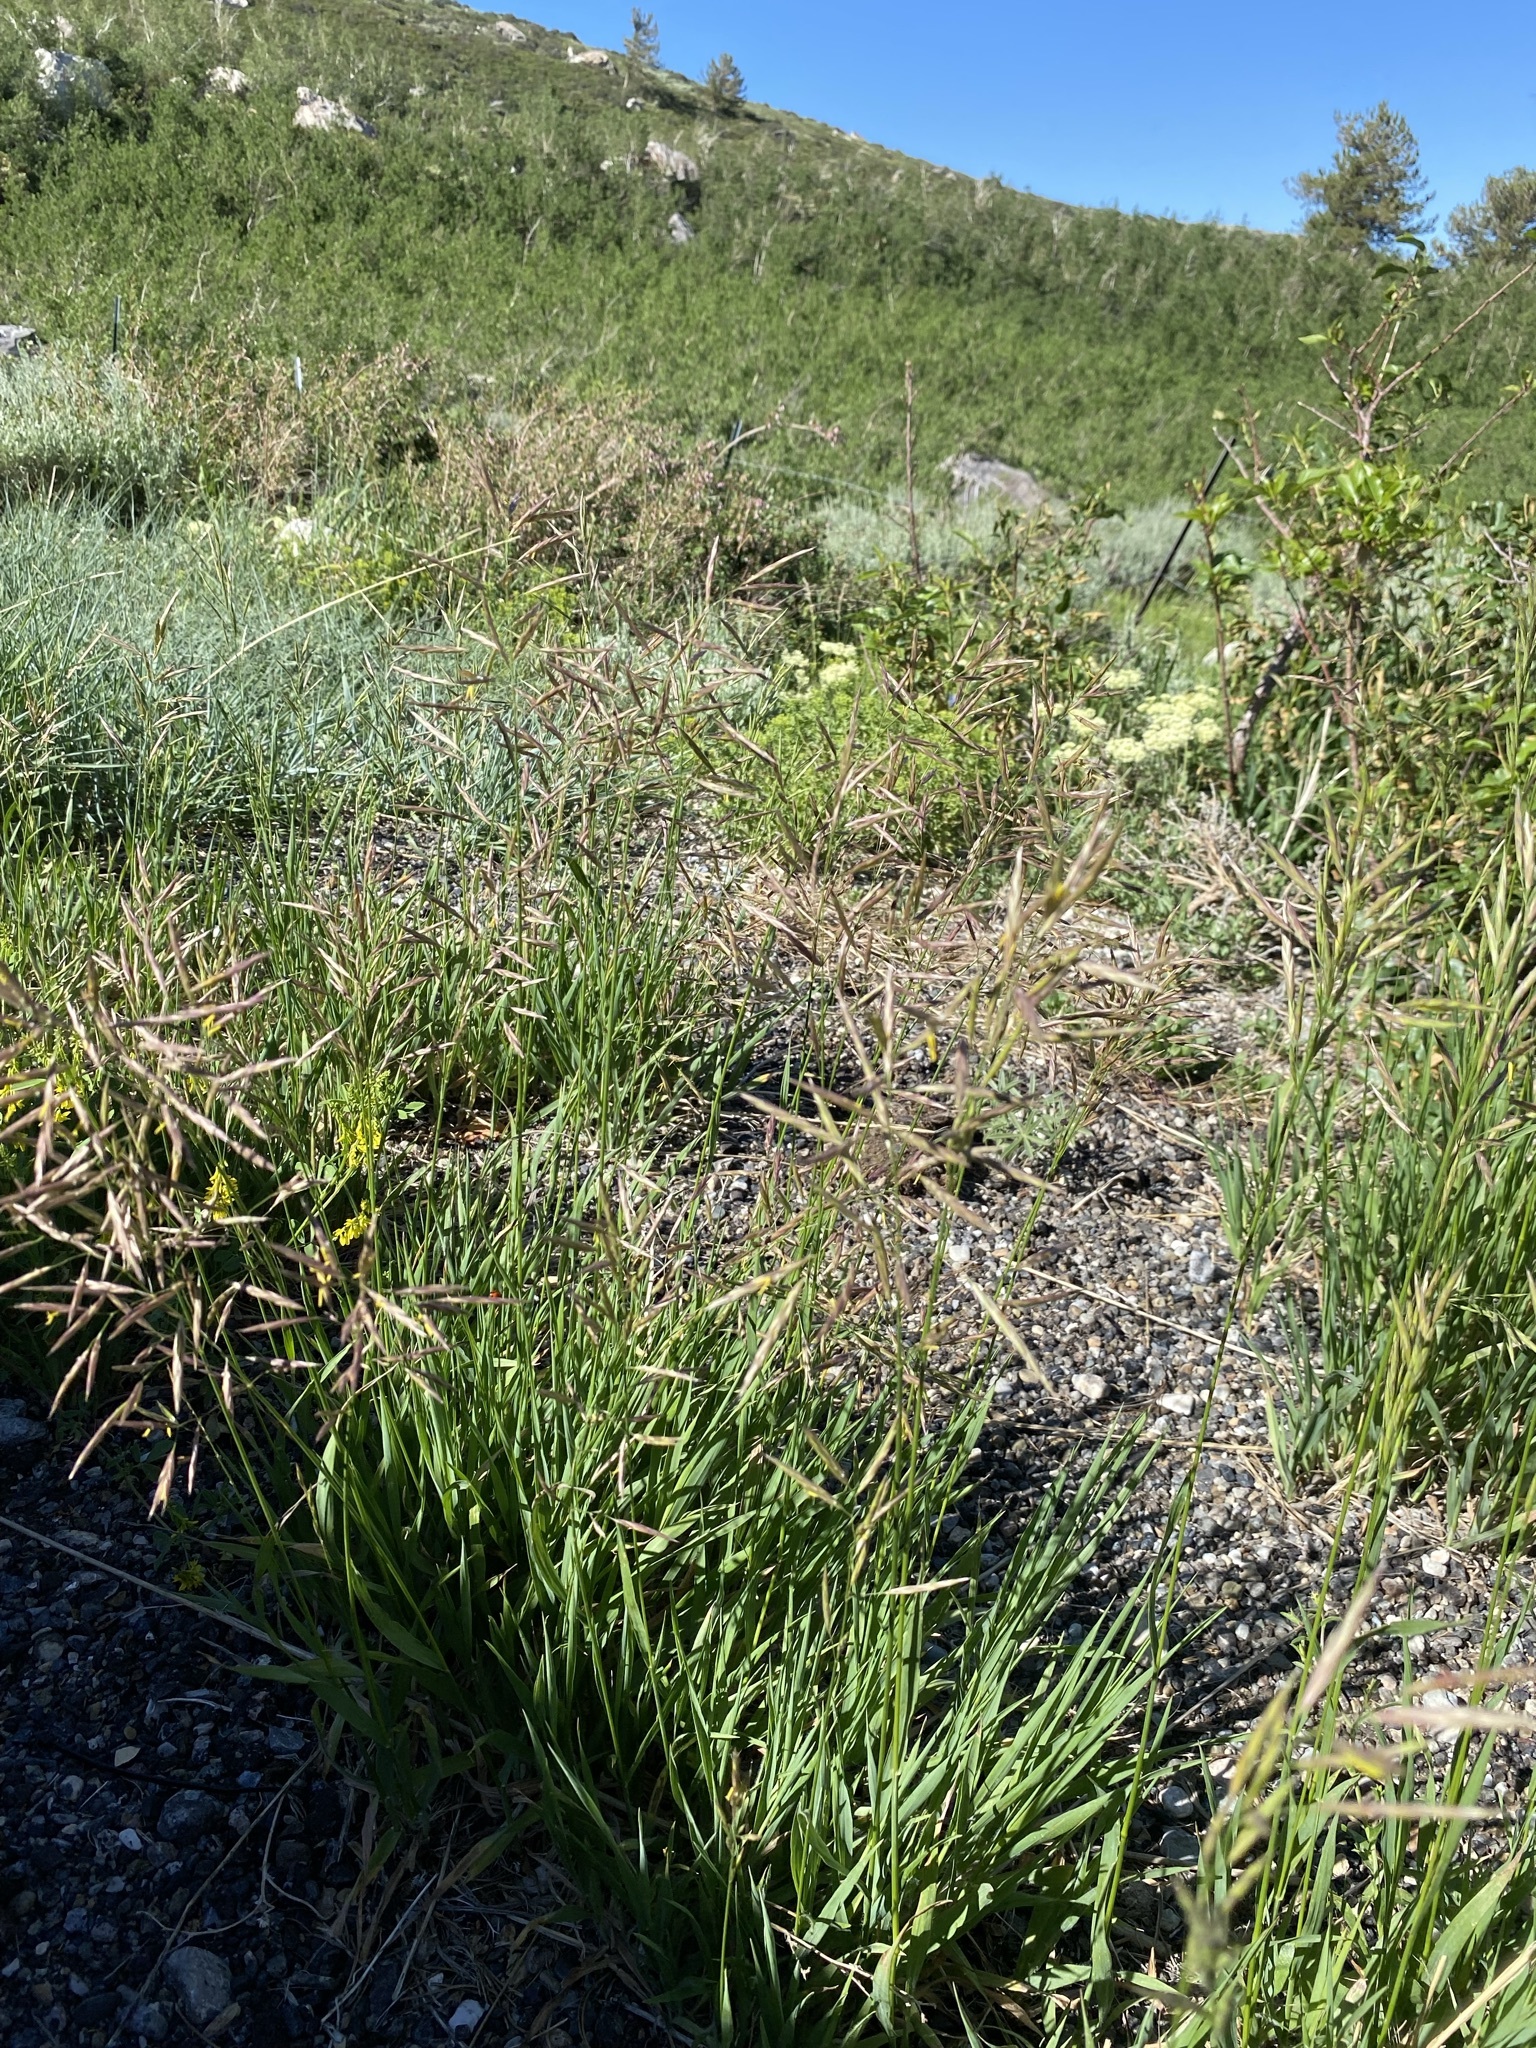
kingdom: Plantae
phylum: Tracheophyta
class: Liliopsida
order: Poales
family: Poaceae
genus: Bromus
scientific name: Bromus inermis
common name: Smooth brome
